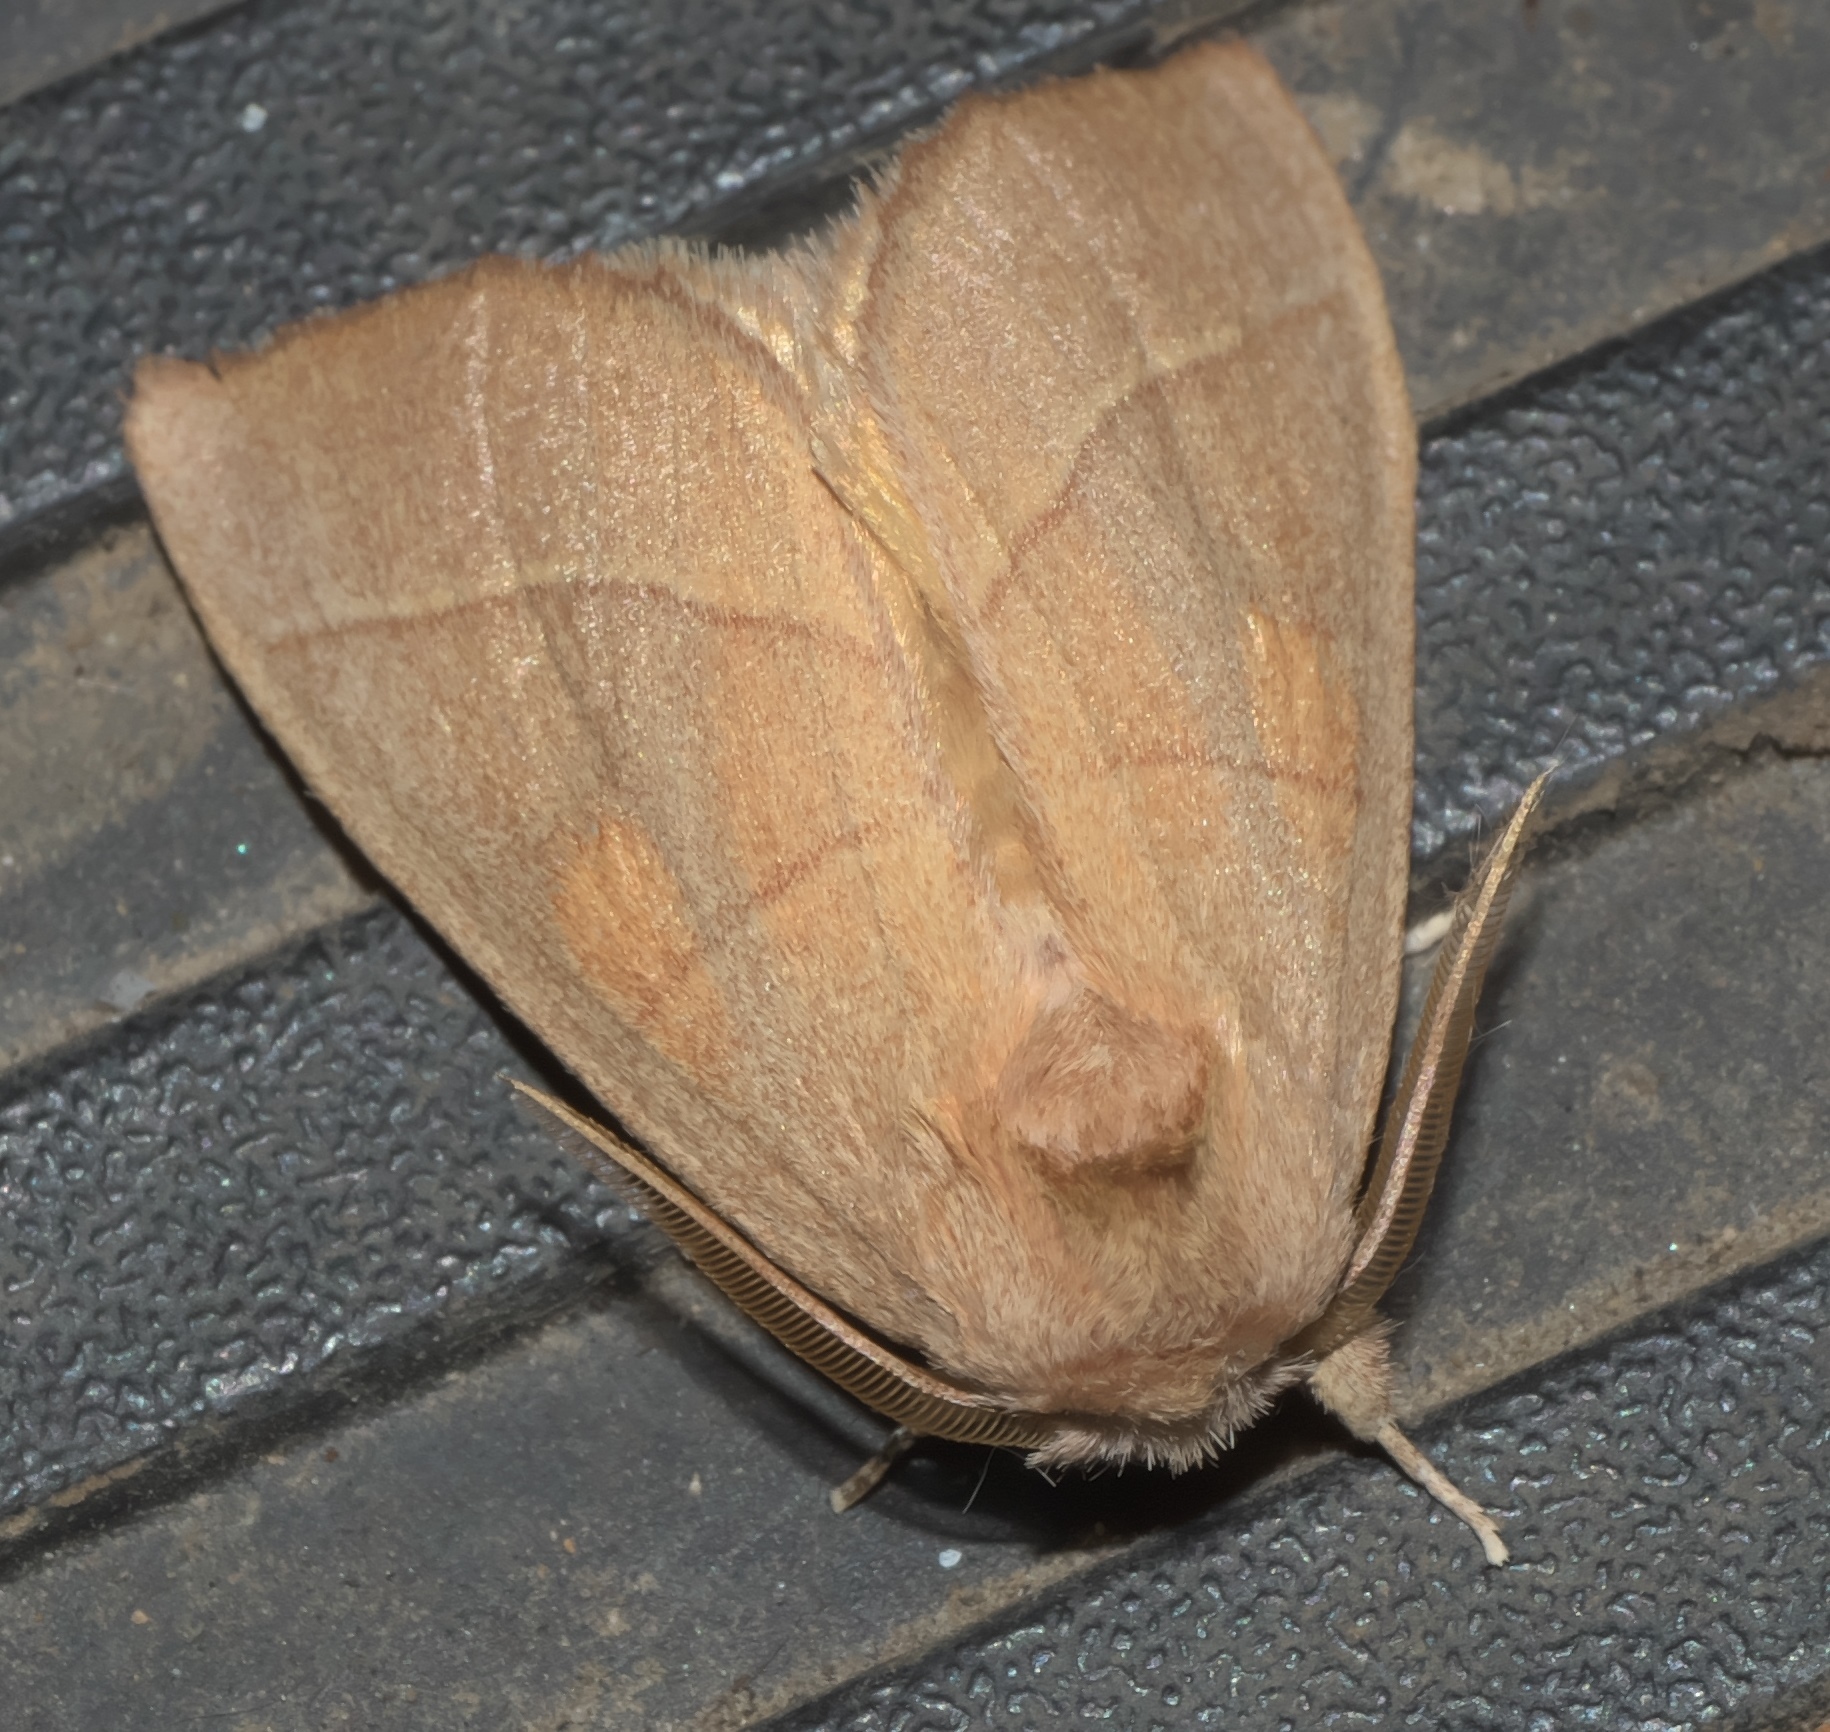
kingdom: Animalia
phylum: Arthropoda
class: Insecta
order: Lepidoptera
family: Notodontidae
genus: Nadata
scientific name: Nadata gibbosa
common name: White-dotted prominent
